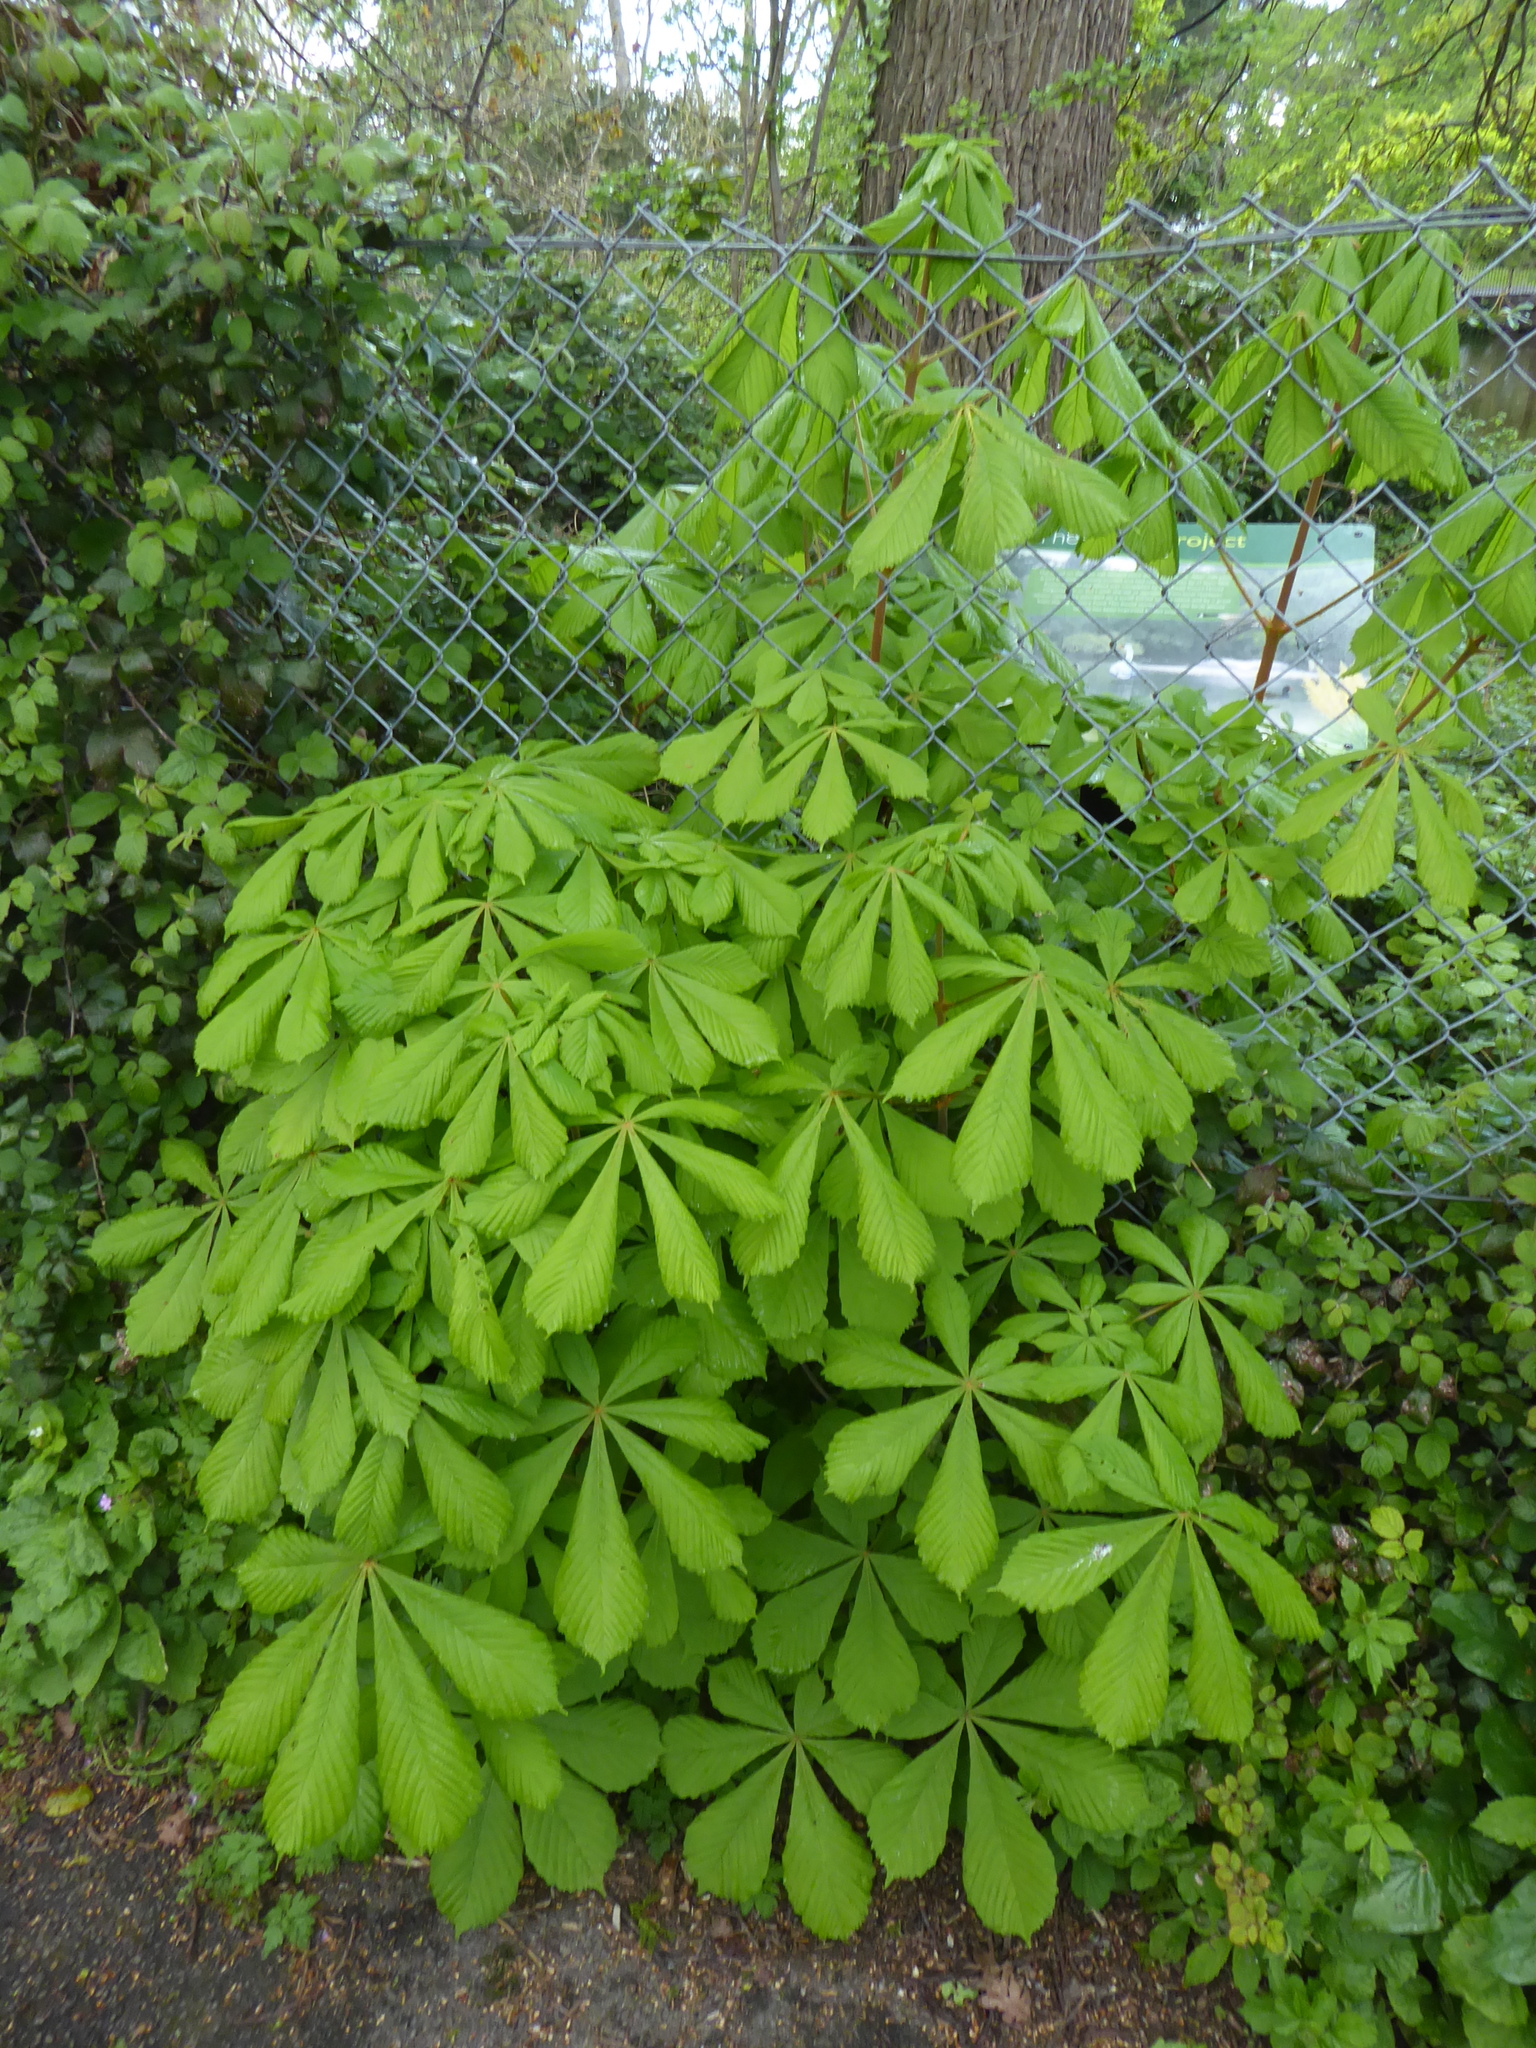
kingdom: Plantae
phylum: Tracheophyta
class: Magnoliopsida
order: Sapindales
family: Sapindaceae
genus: Aesculus
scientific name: Aesculus hippocastanum
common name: Horse-chestnut
